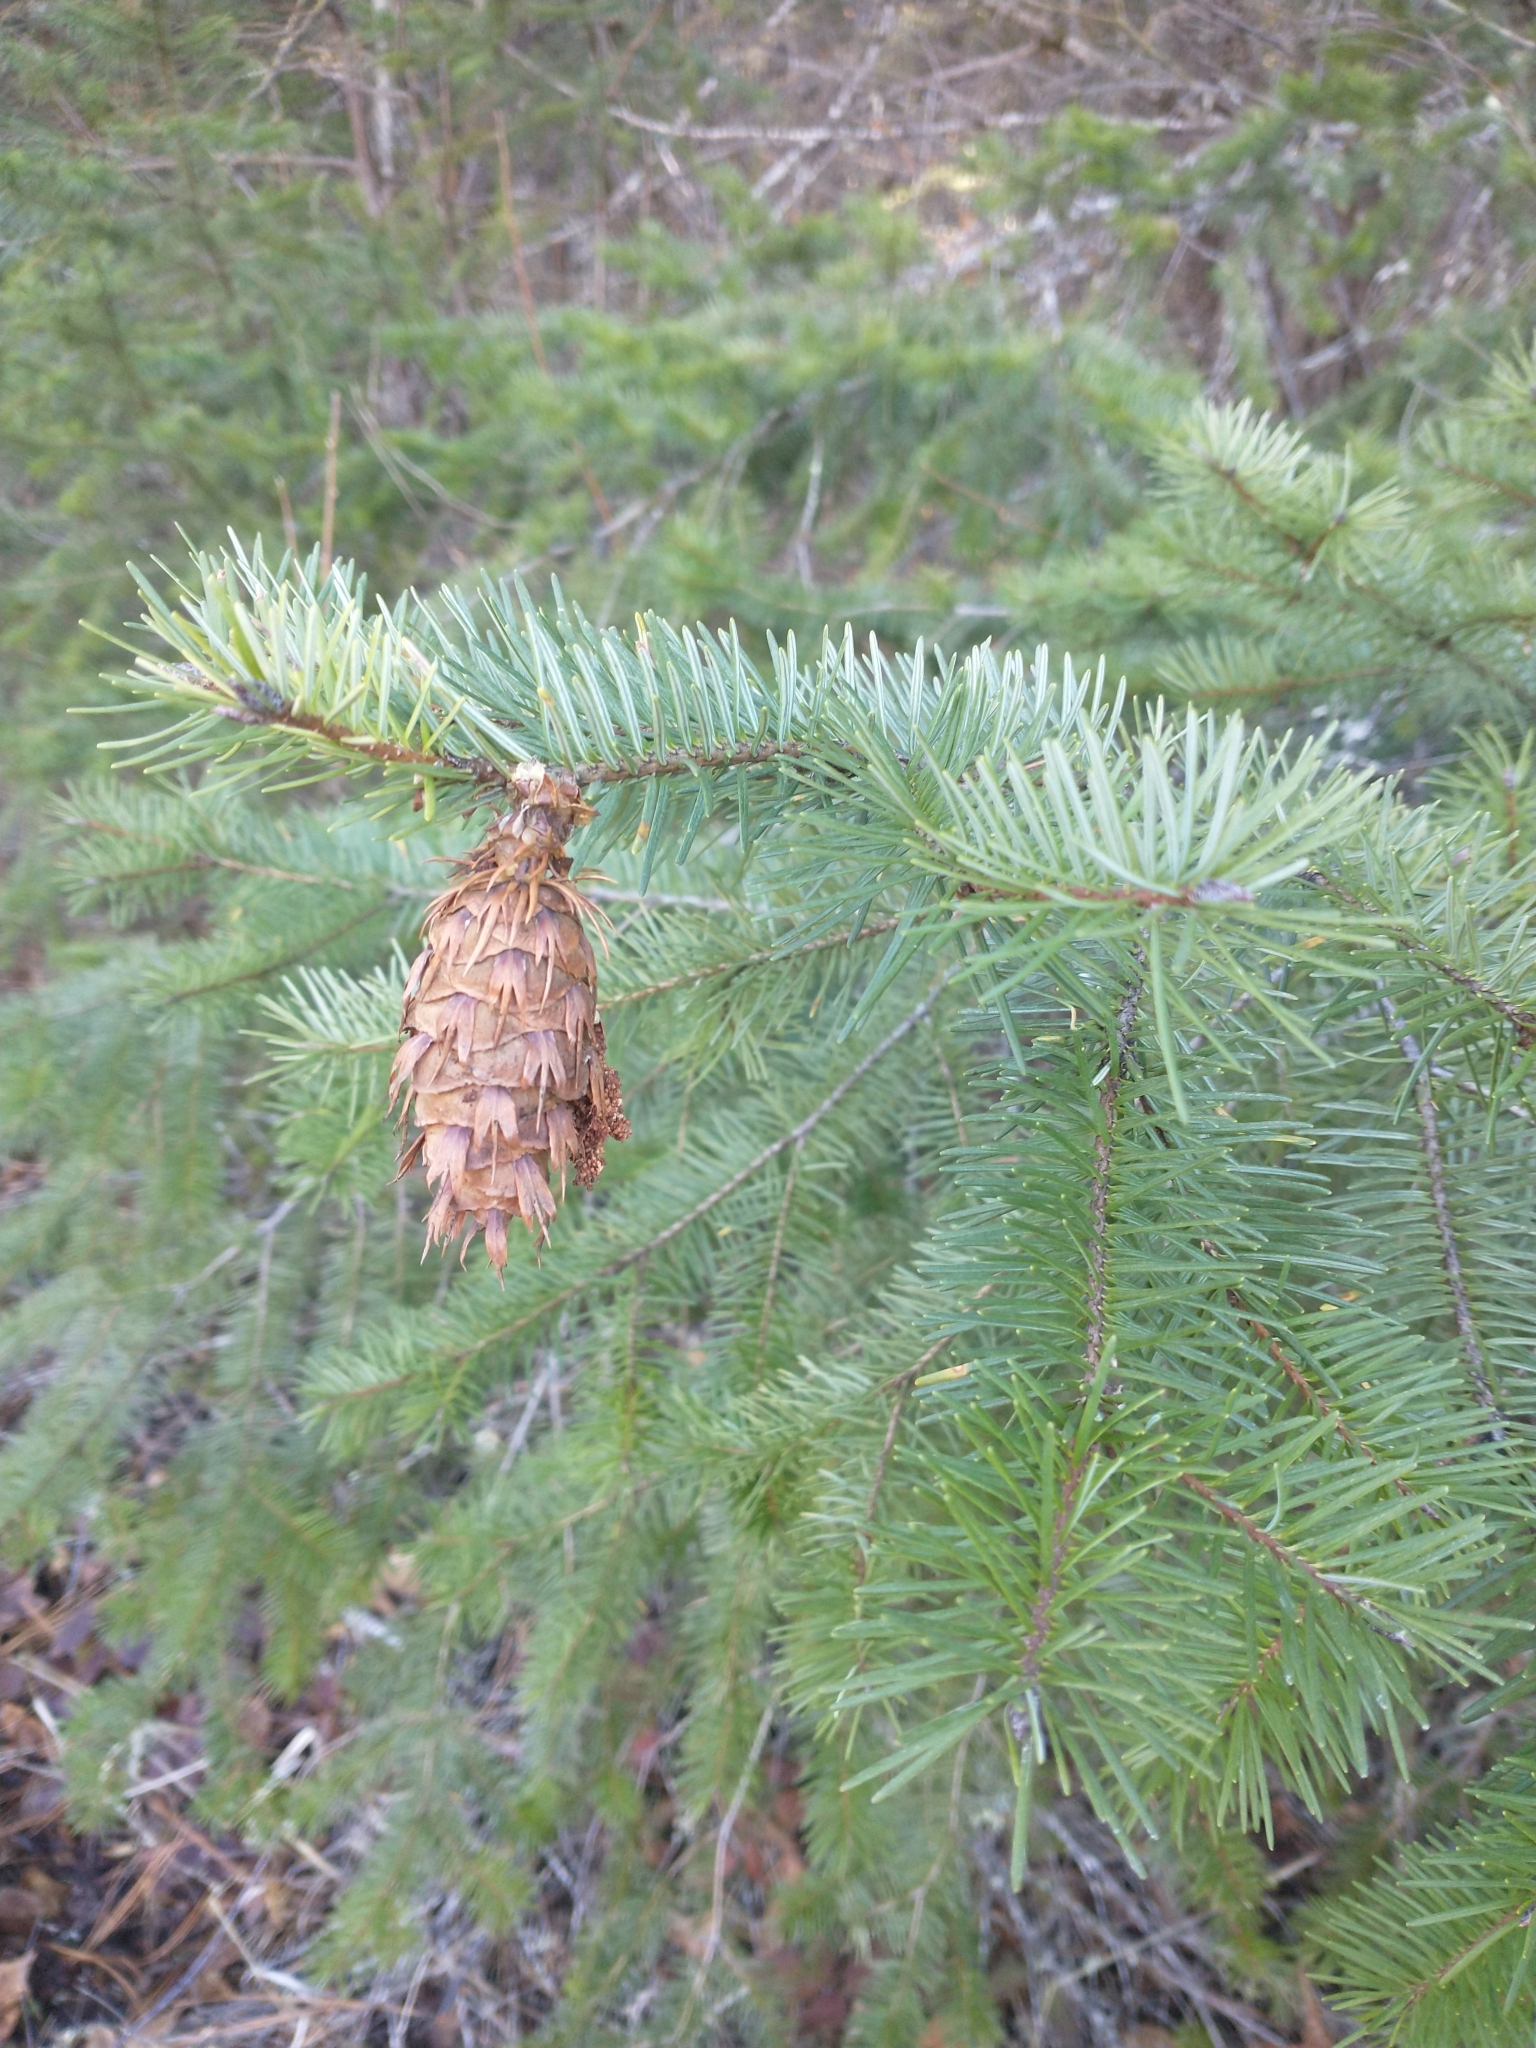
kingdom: Plantae
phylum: Tracheophyta
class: Pinopsida
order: Pinales
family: Pinaceae
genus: Pseudotsuga
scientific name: Pseudotsuga menziesii
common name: Douglas fir
